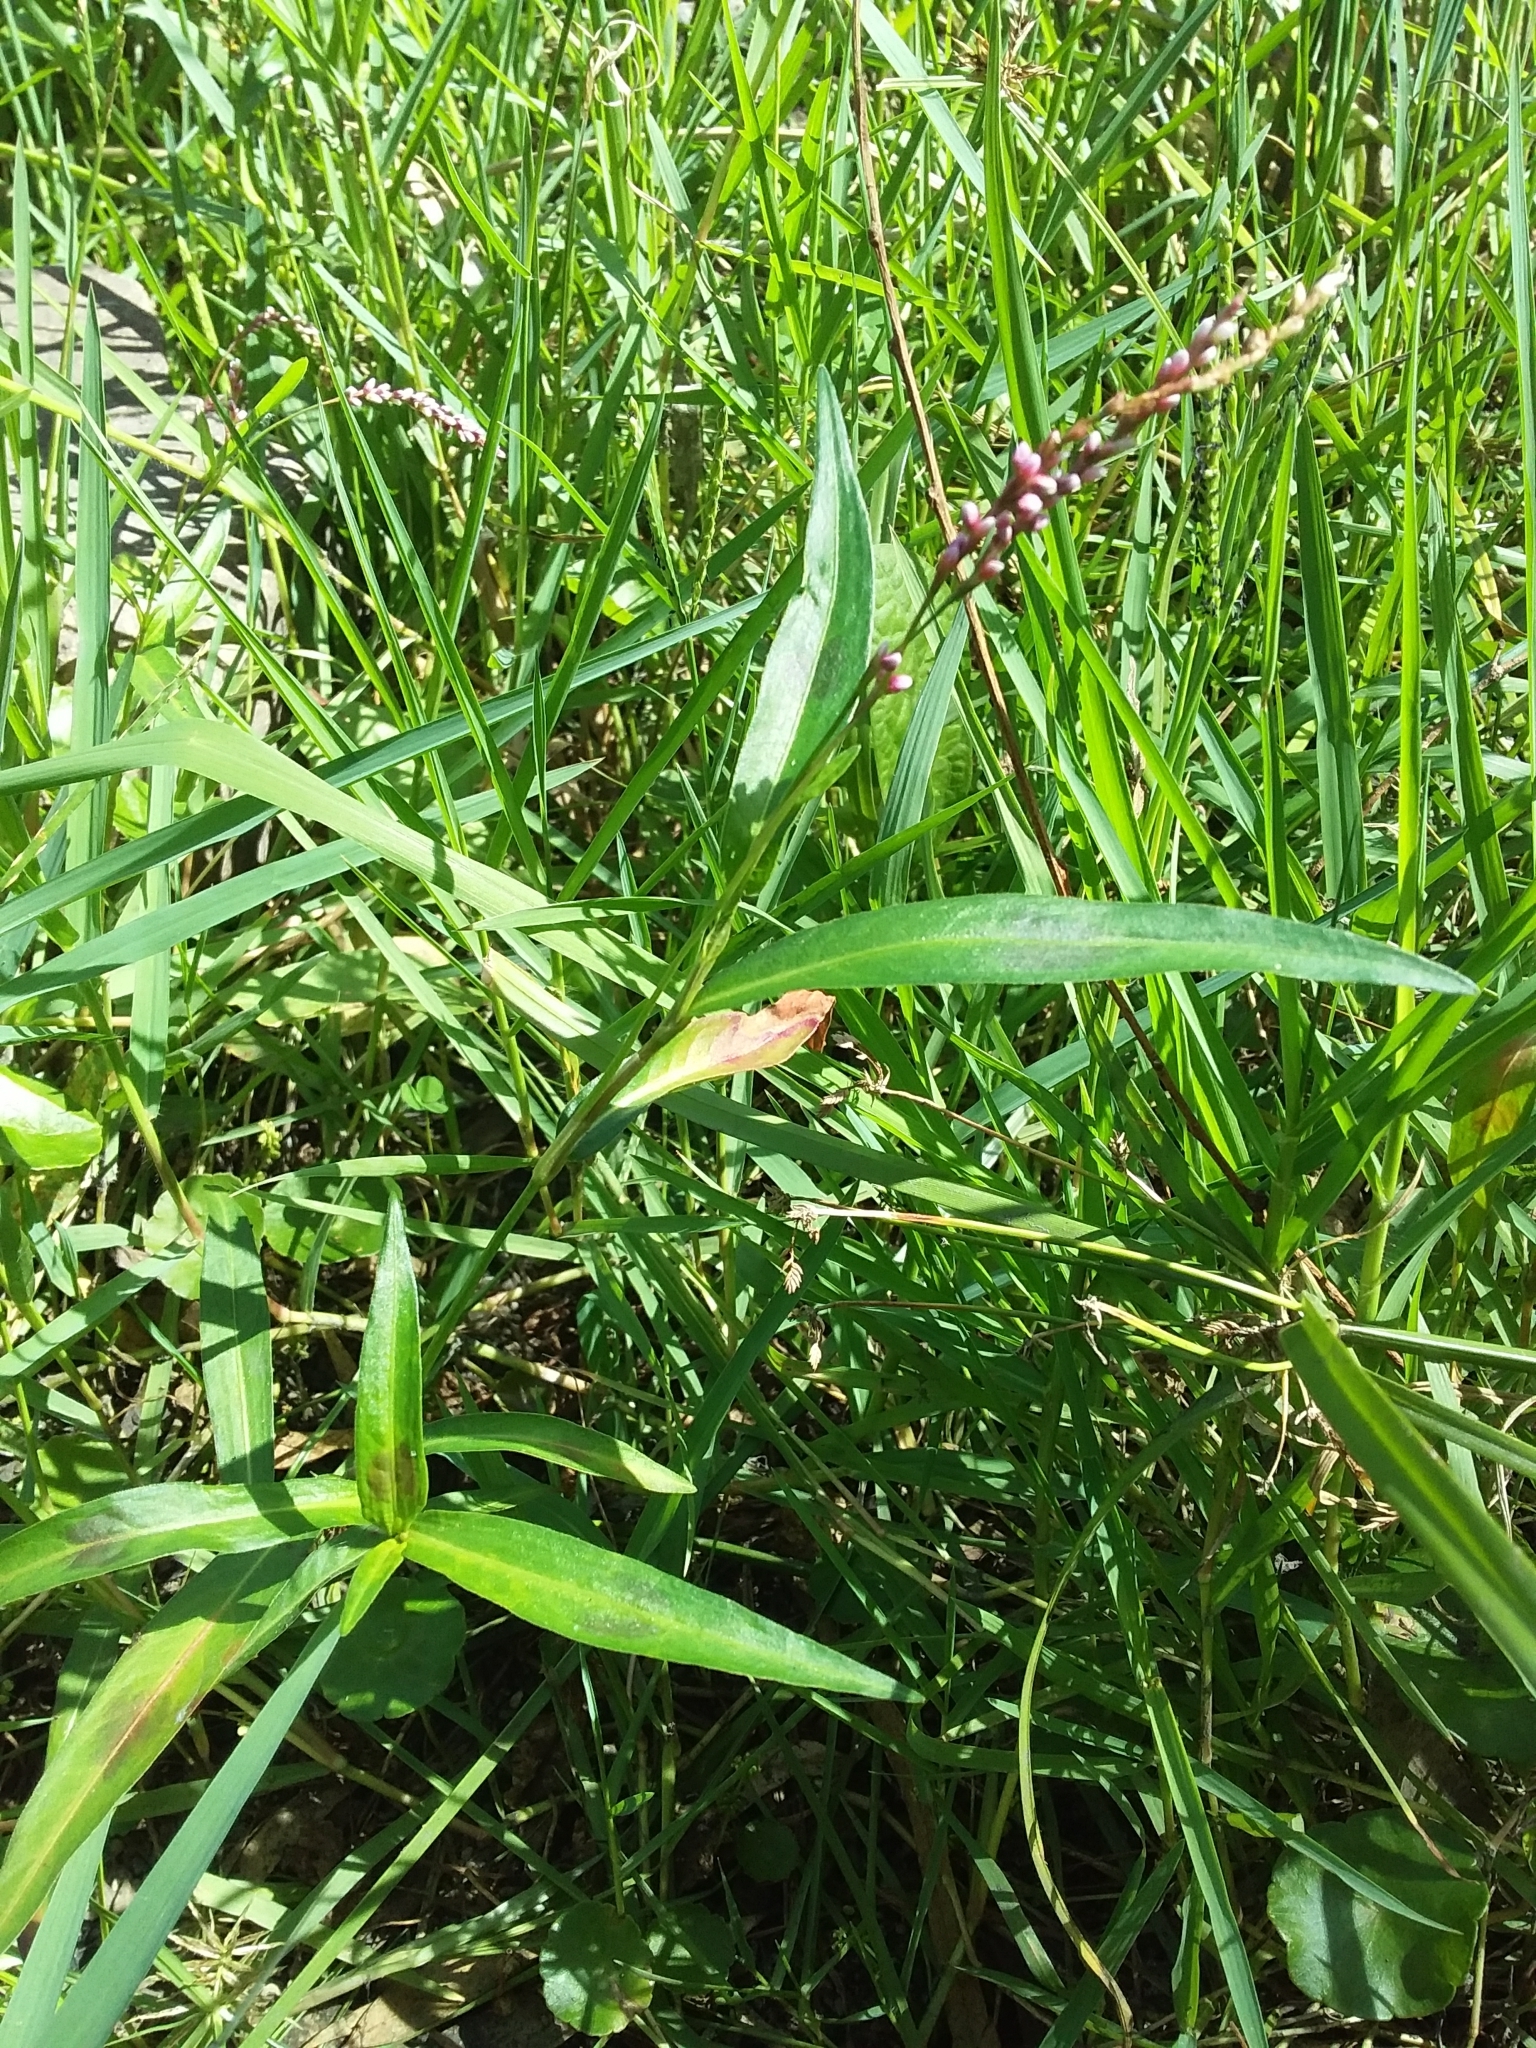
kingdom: Plantae
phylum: Tracheophyta
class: Magnoliopsida
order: Caryophyllales
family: Polygonaceae
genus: Persicaria
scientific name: Persicaria decipiens
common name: Willow-weed
